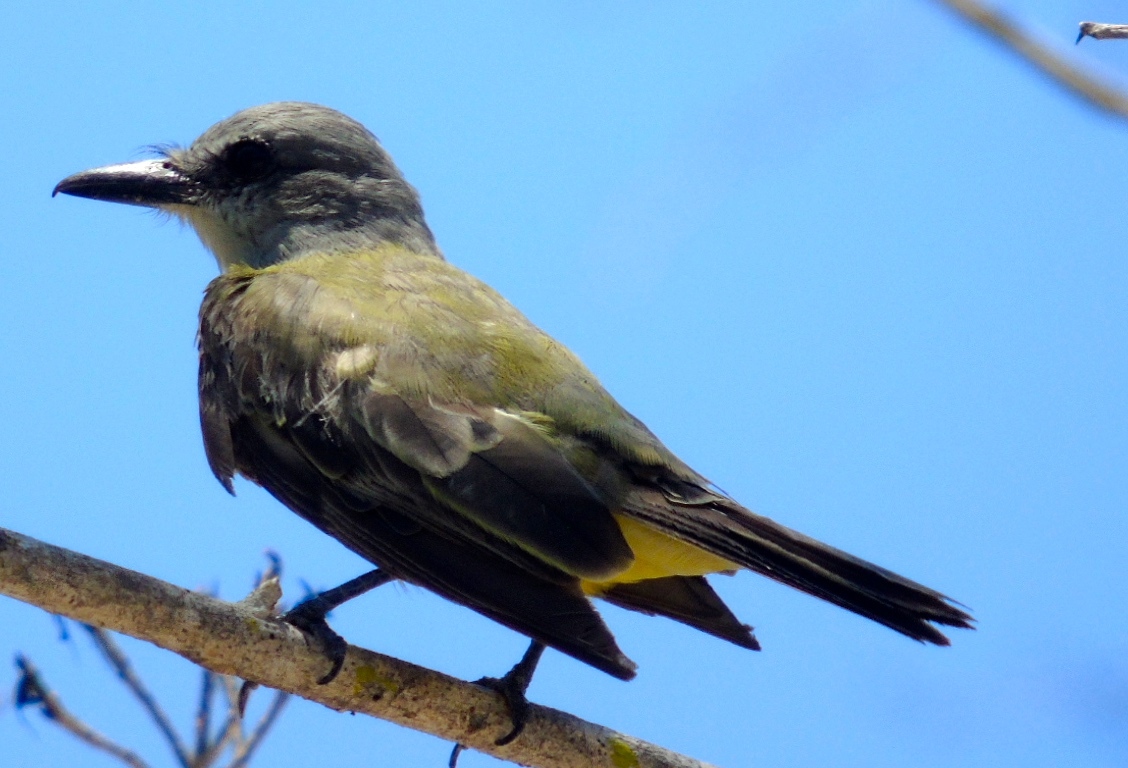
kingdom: Animalia
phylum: Chordata
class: Aves
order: Passeriformes
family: Tyrannidae
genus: Tyrannus
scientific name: Tyrannus melancholicus
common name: Tropical kingbird
